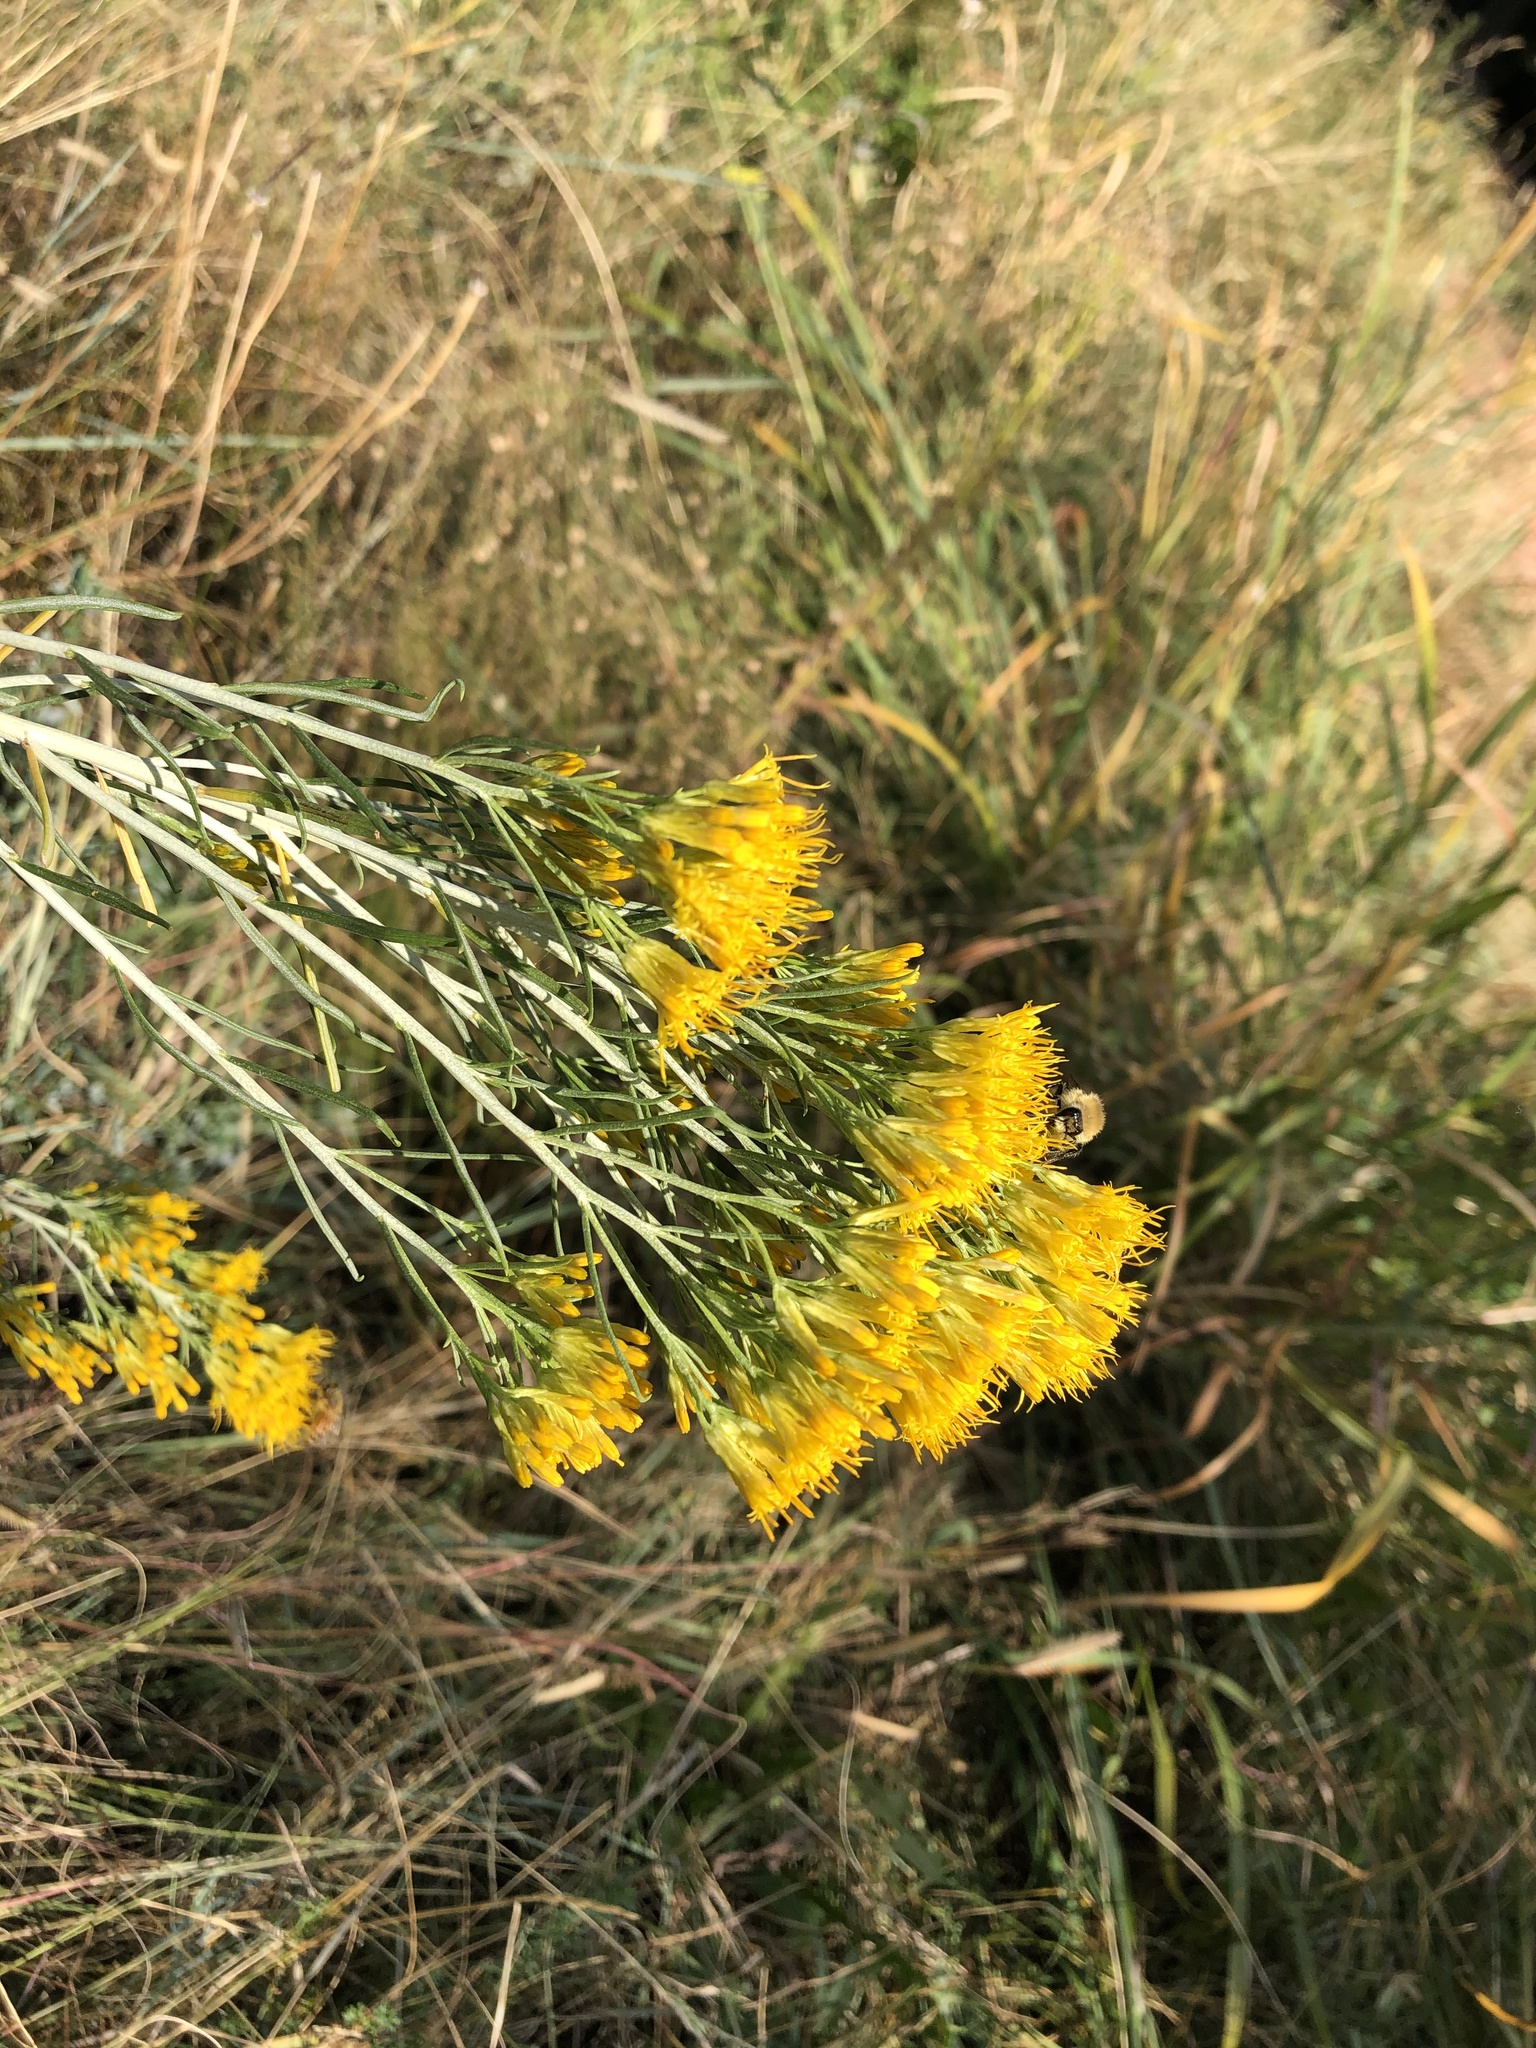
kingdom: Plantae
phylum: Tracheophyta
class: Magnoliopsida
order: Asterales
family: Asteraceae
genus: Ericameria
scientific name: Ericameria nauseosa
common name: Rubber rabbitbrush
